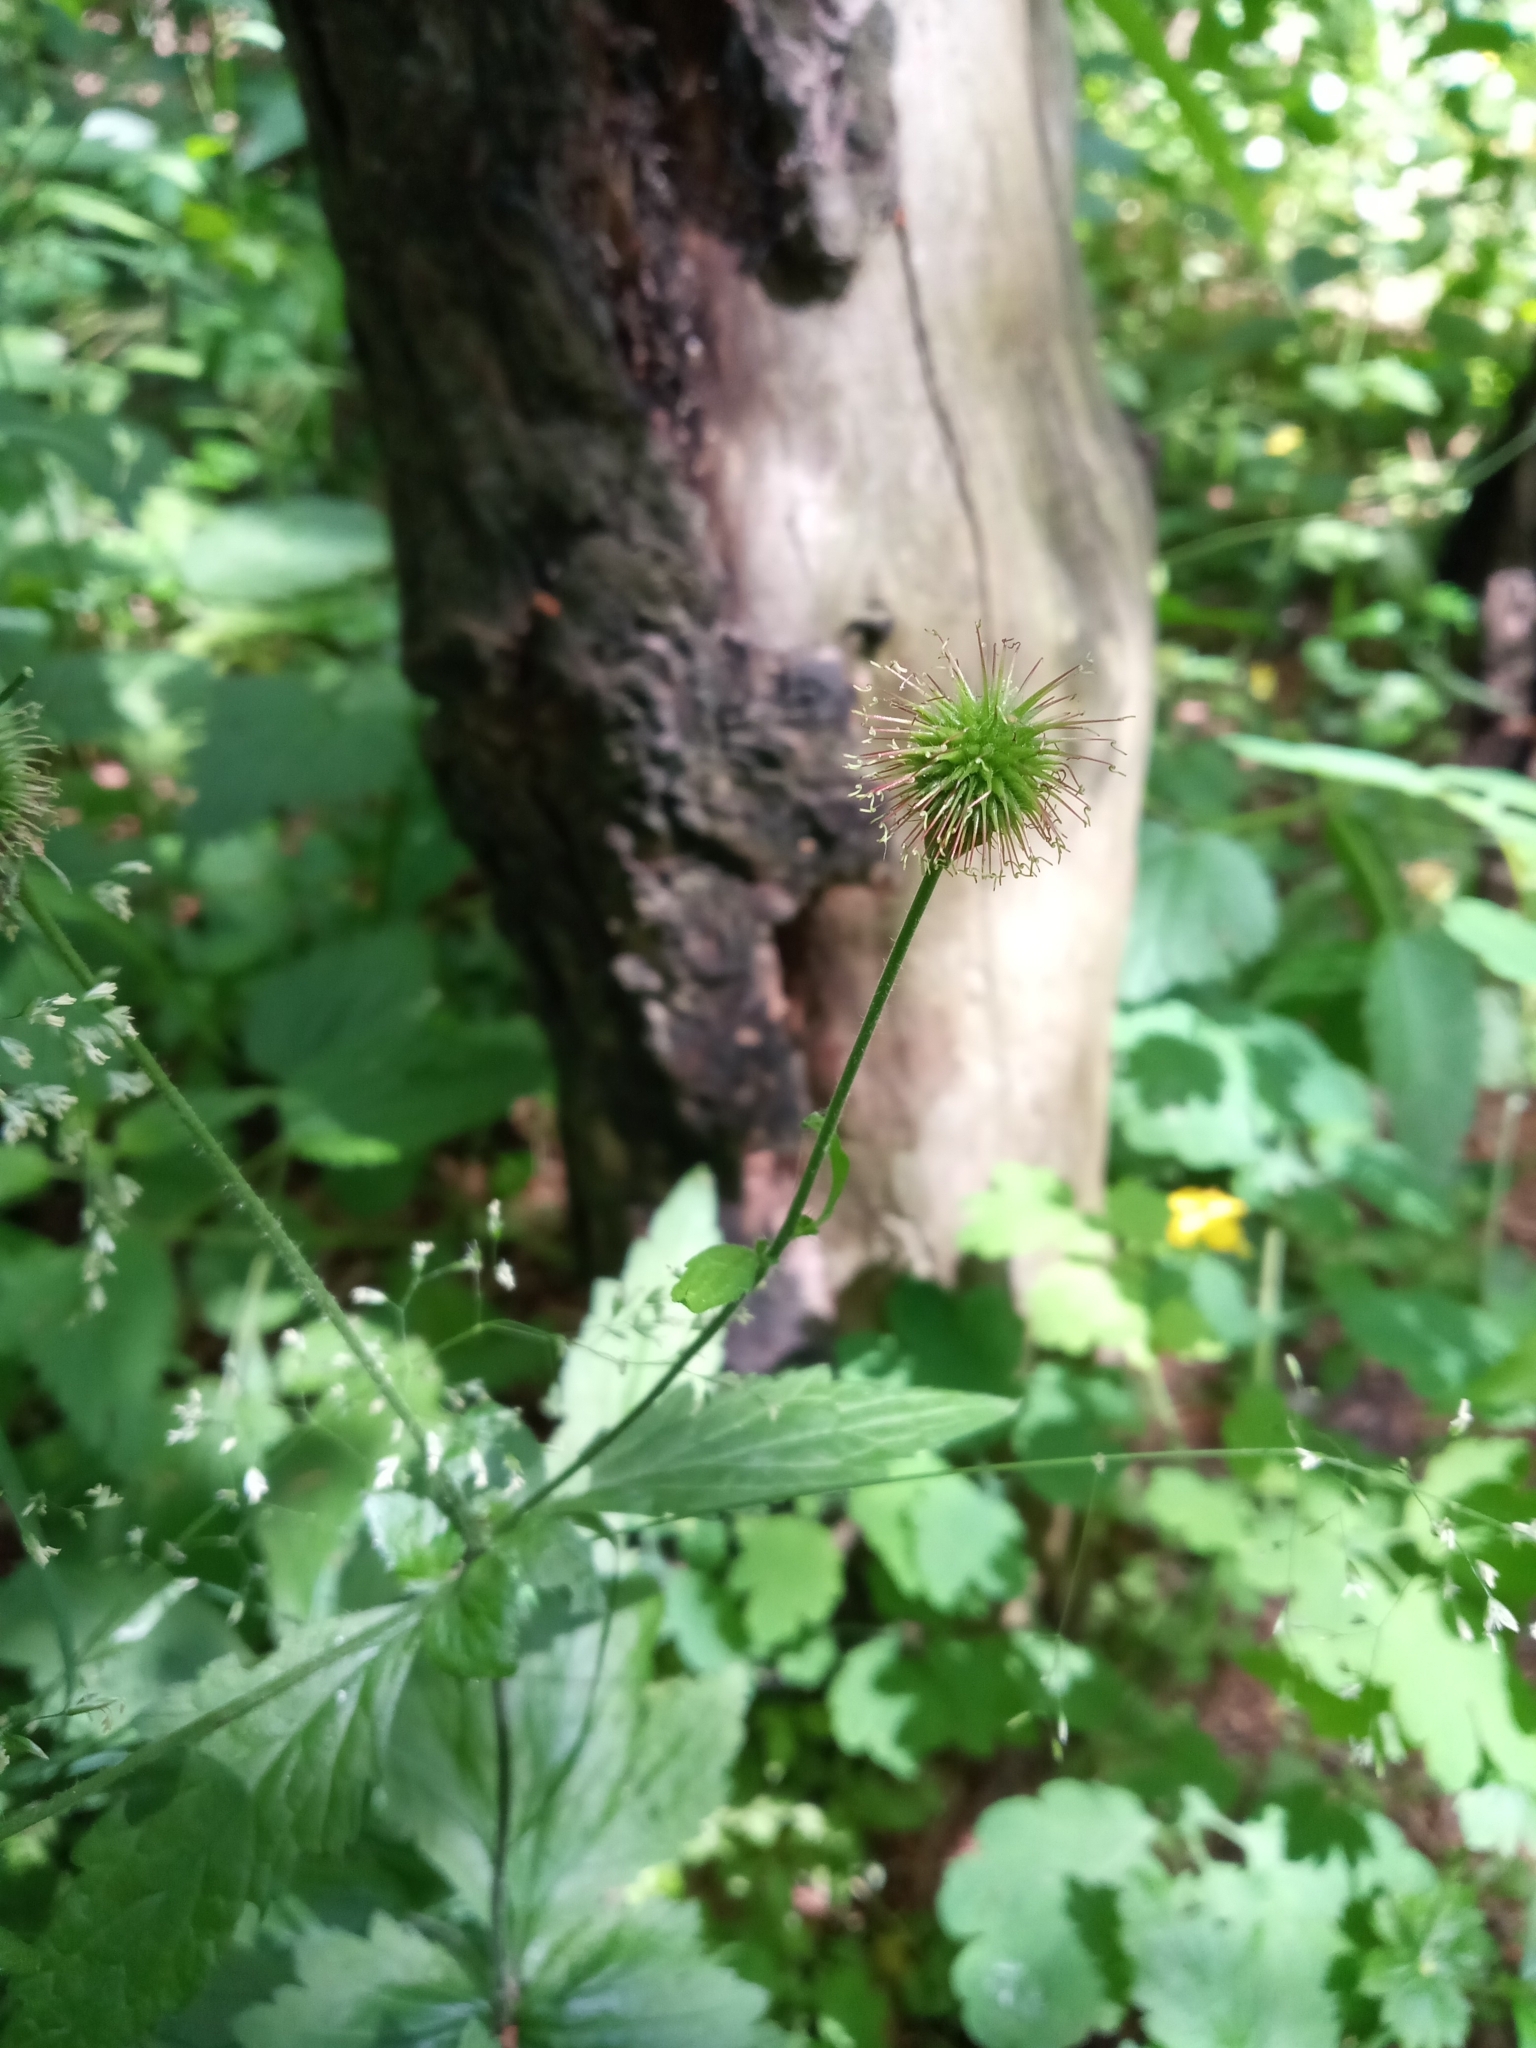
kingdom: Plantae
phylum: Tracheophyta
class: Magnoliopsida
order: Rosales
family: Rosaceae
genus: Geum
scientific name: Geum urbanum
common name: Wood avens
